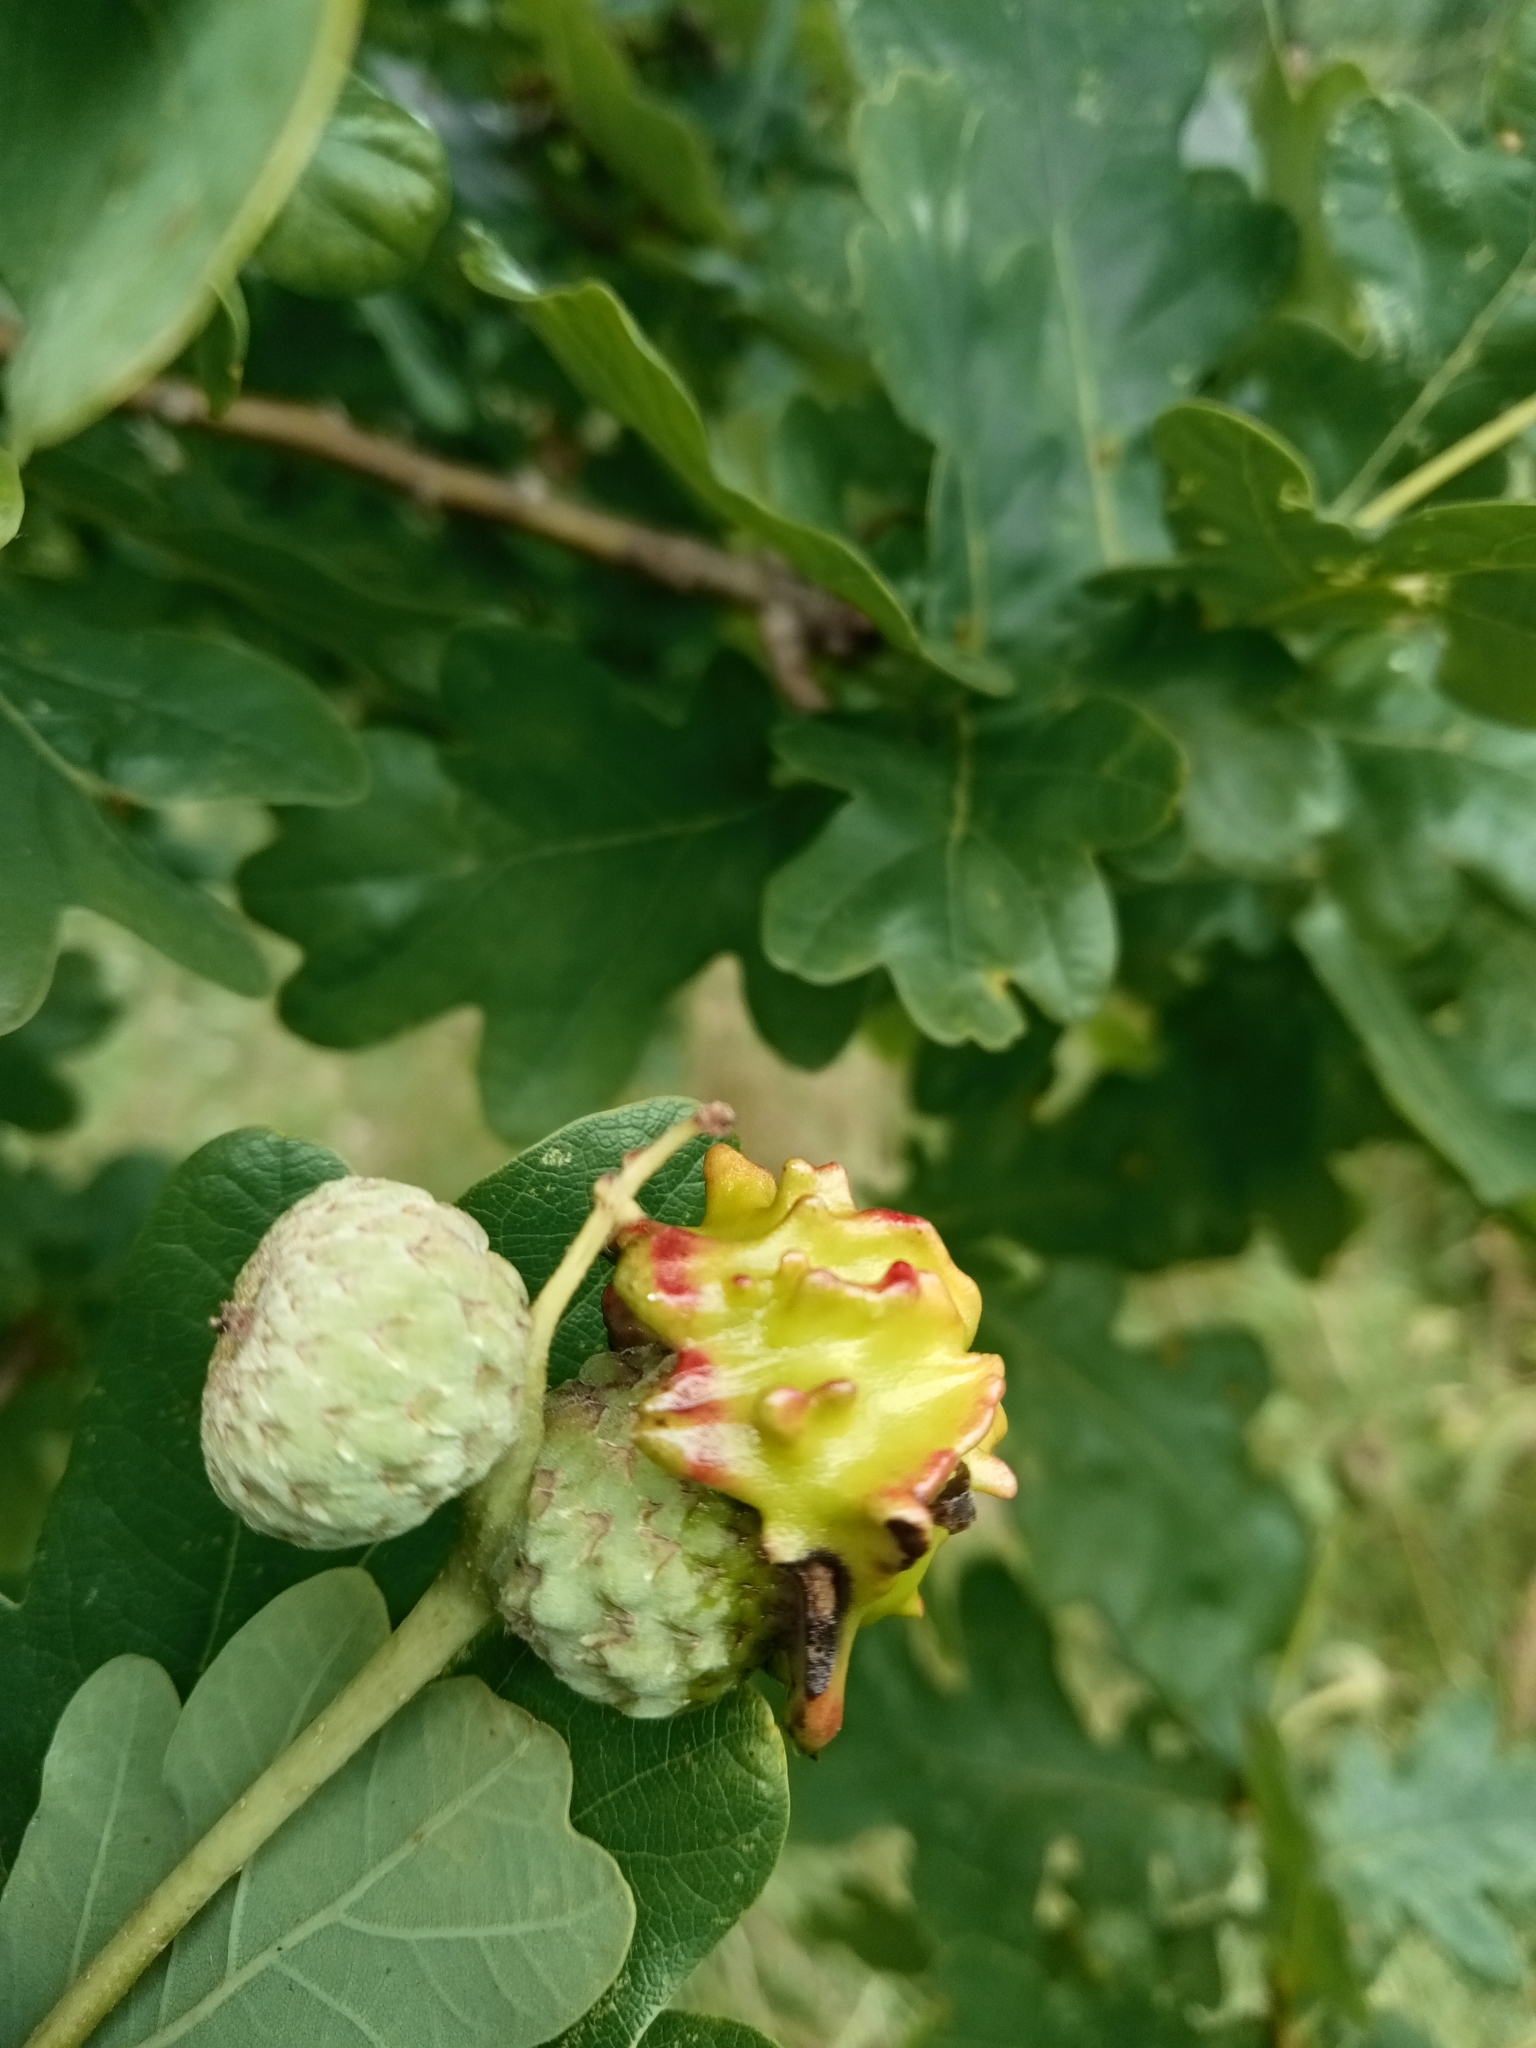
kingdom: Animalia
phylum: Arthropoda
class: Insecta
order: Hymenoptera
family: Cynipidae
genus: Andricus
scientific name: Andricus quercuscalicis
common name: Knopper gall
